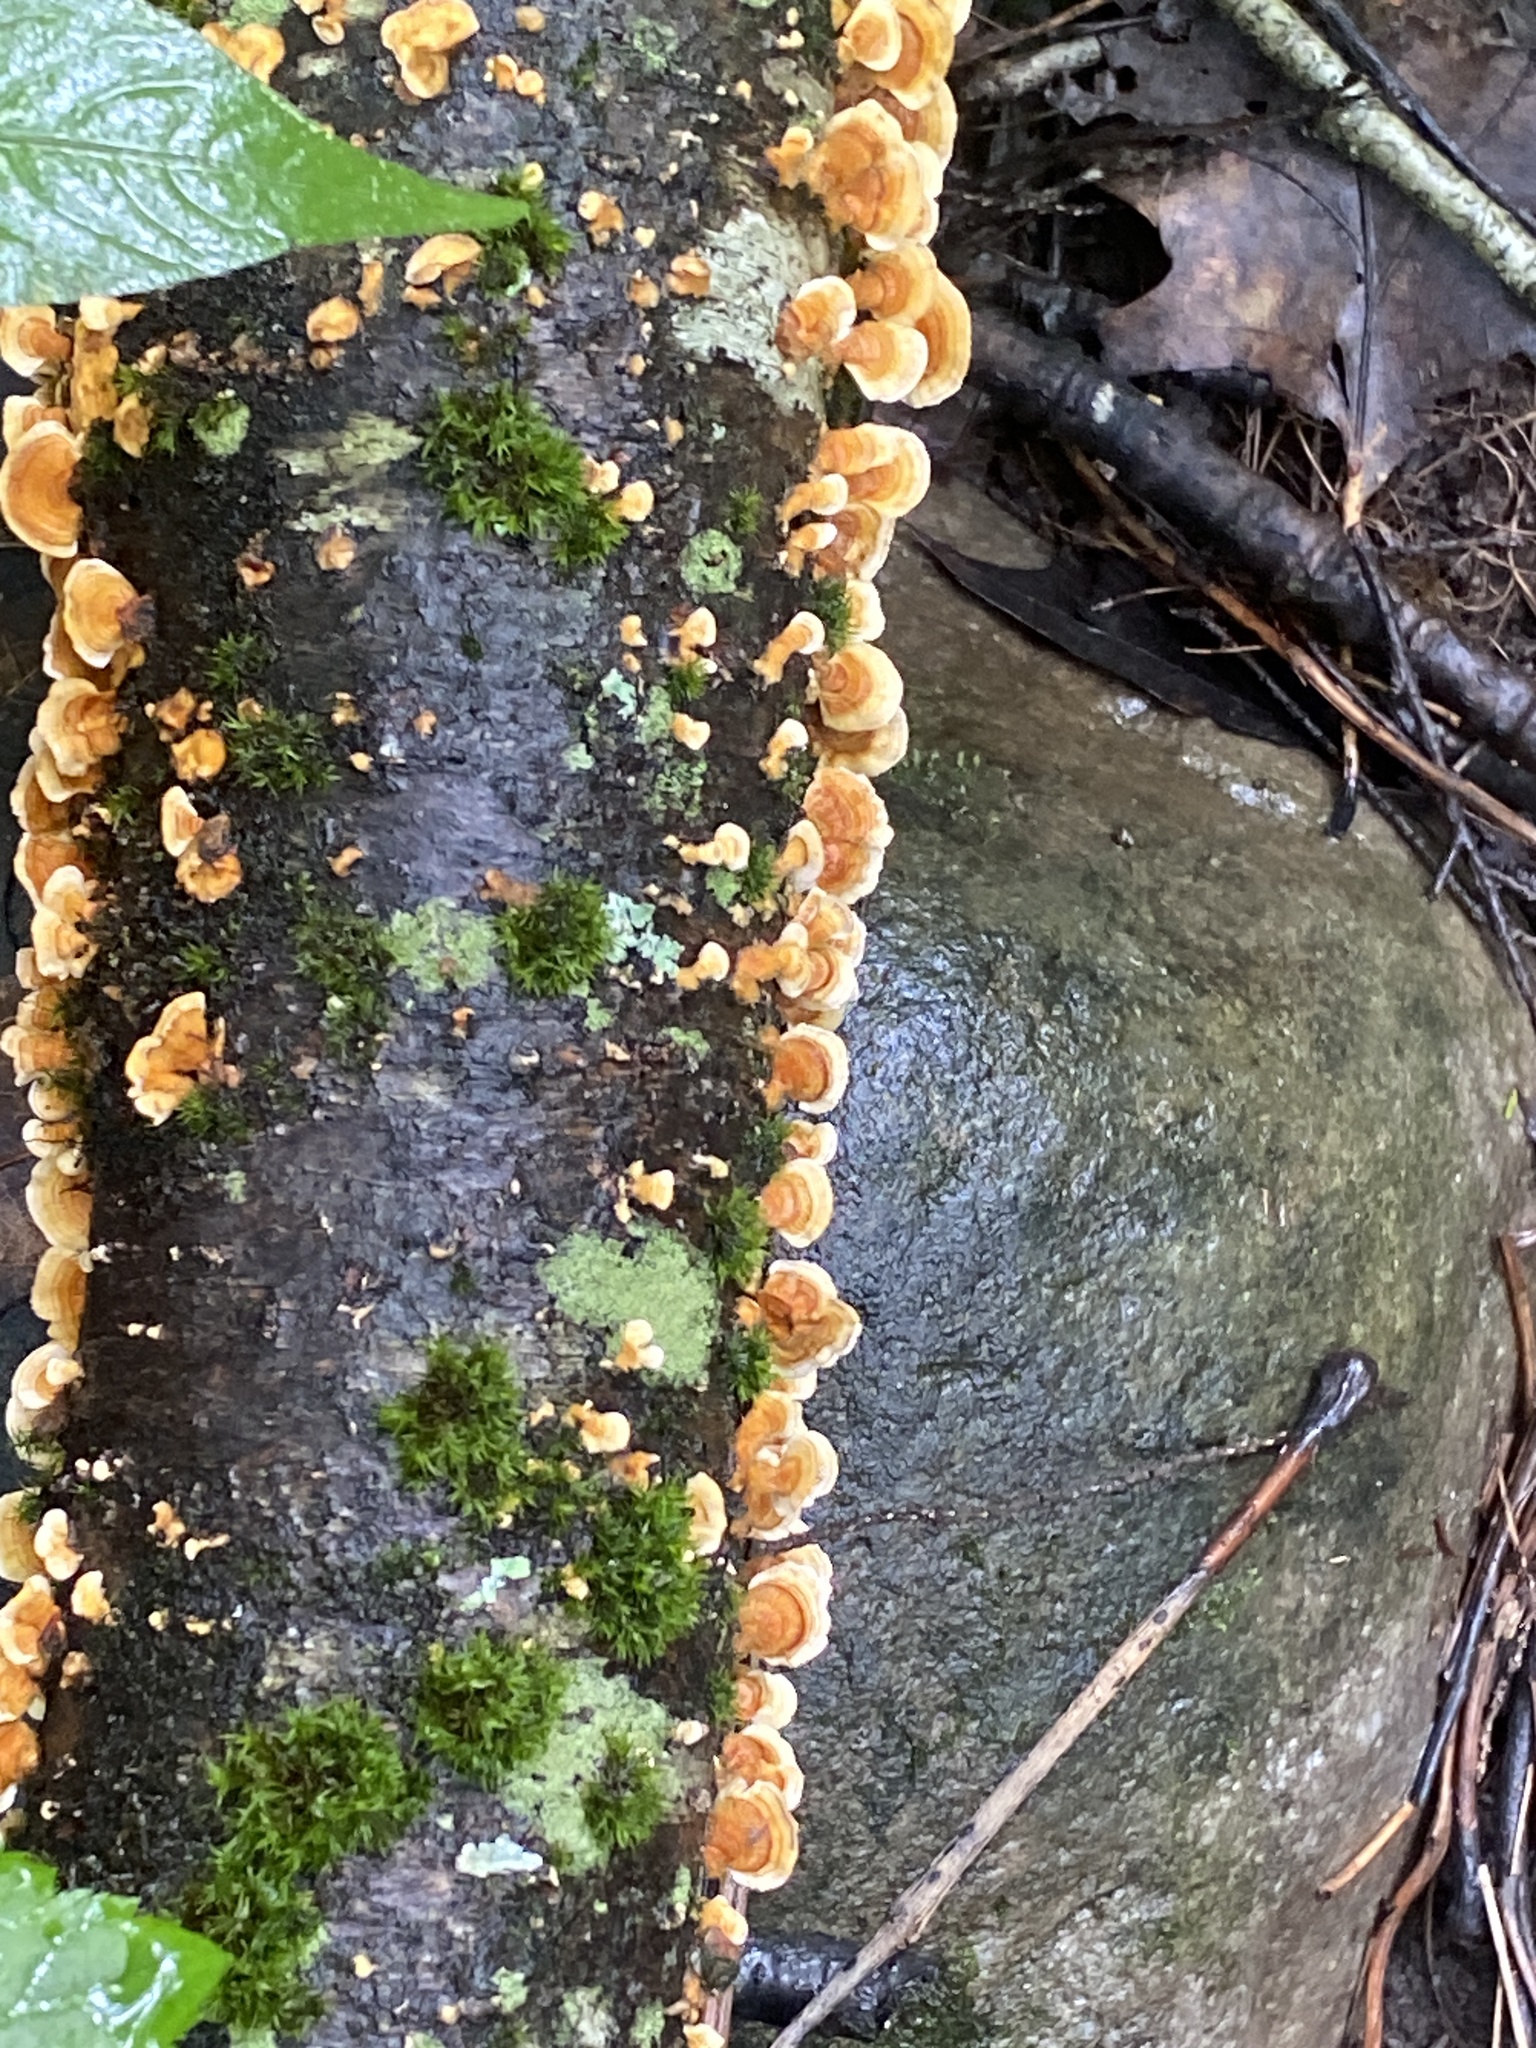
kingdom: Fungi
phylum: Basidiomycota
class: Agaricomycetes
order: Russulales
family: Stereaceae
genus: Stereum
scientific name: Stereum complicatum
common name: Crowded parchment
